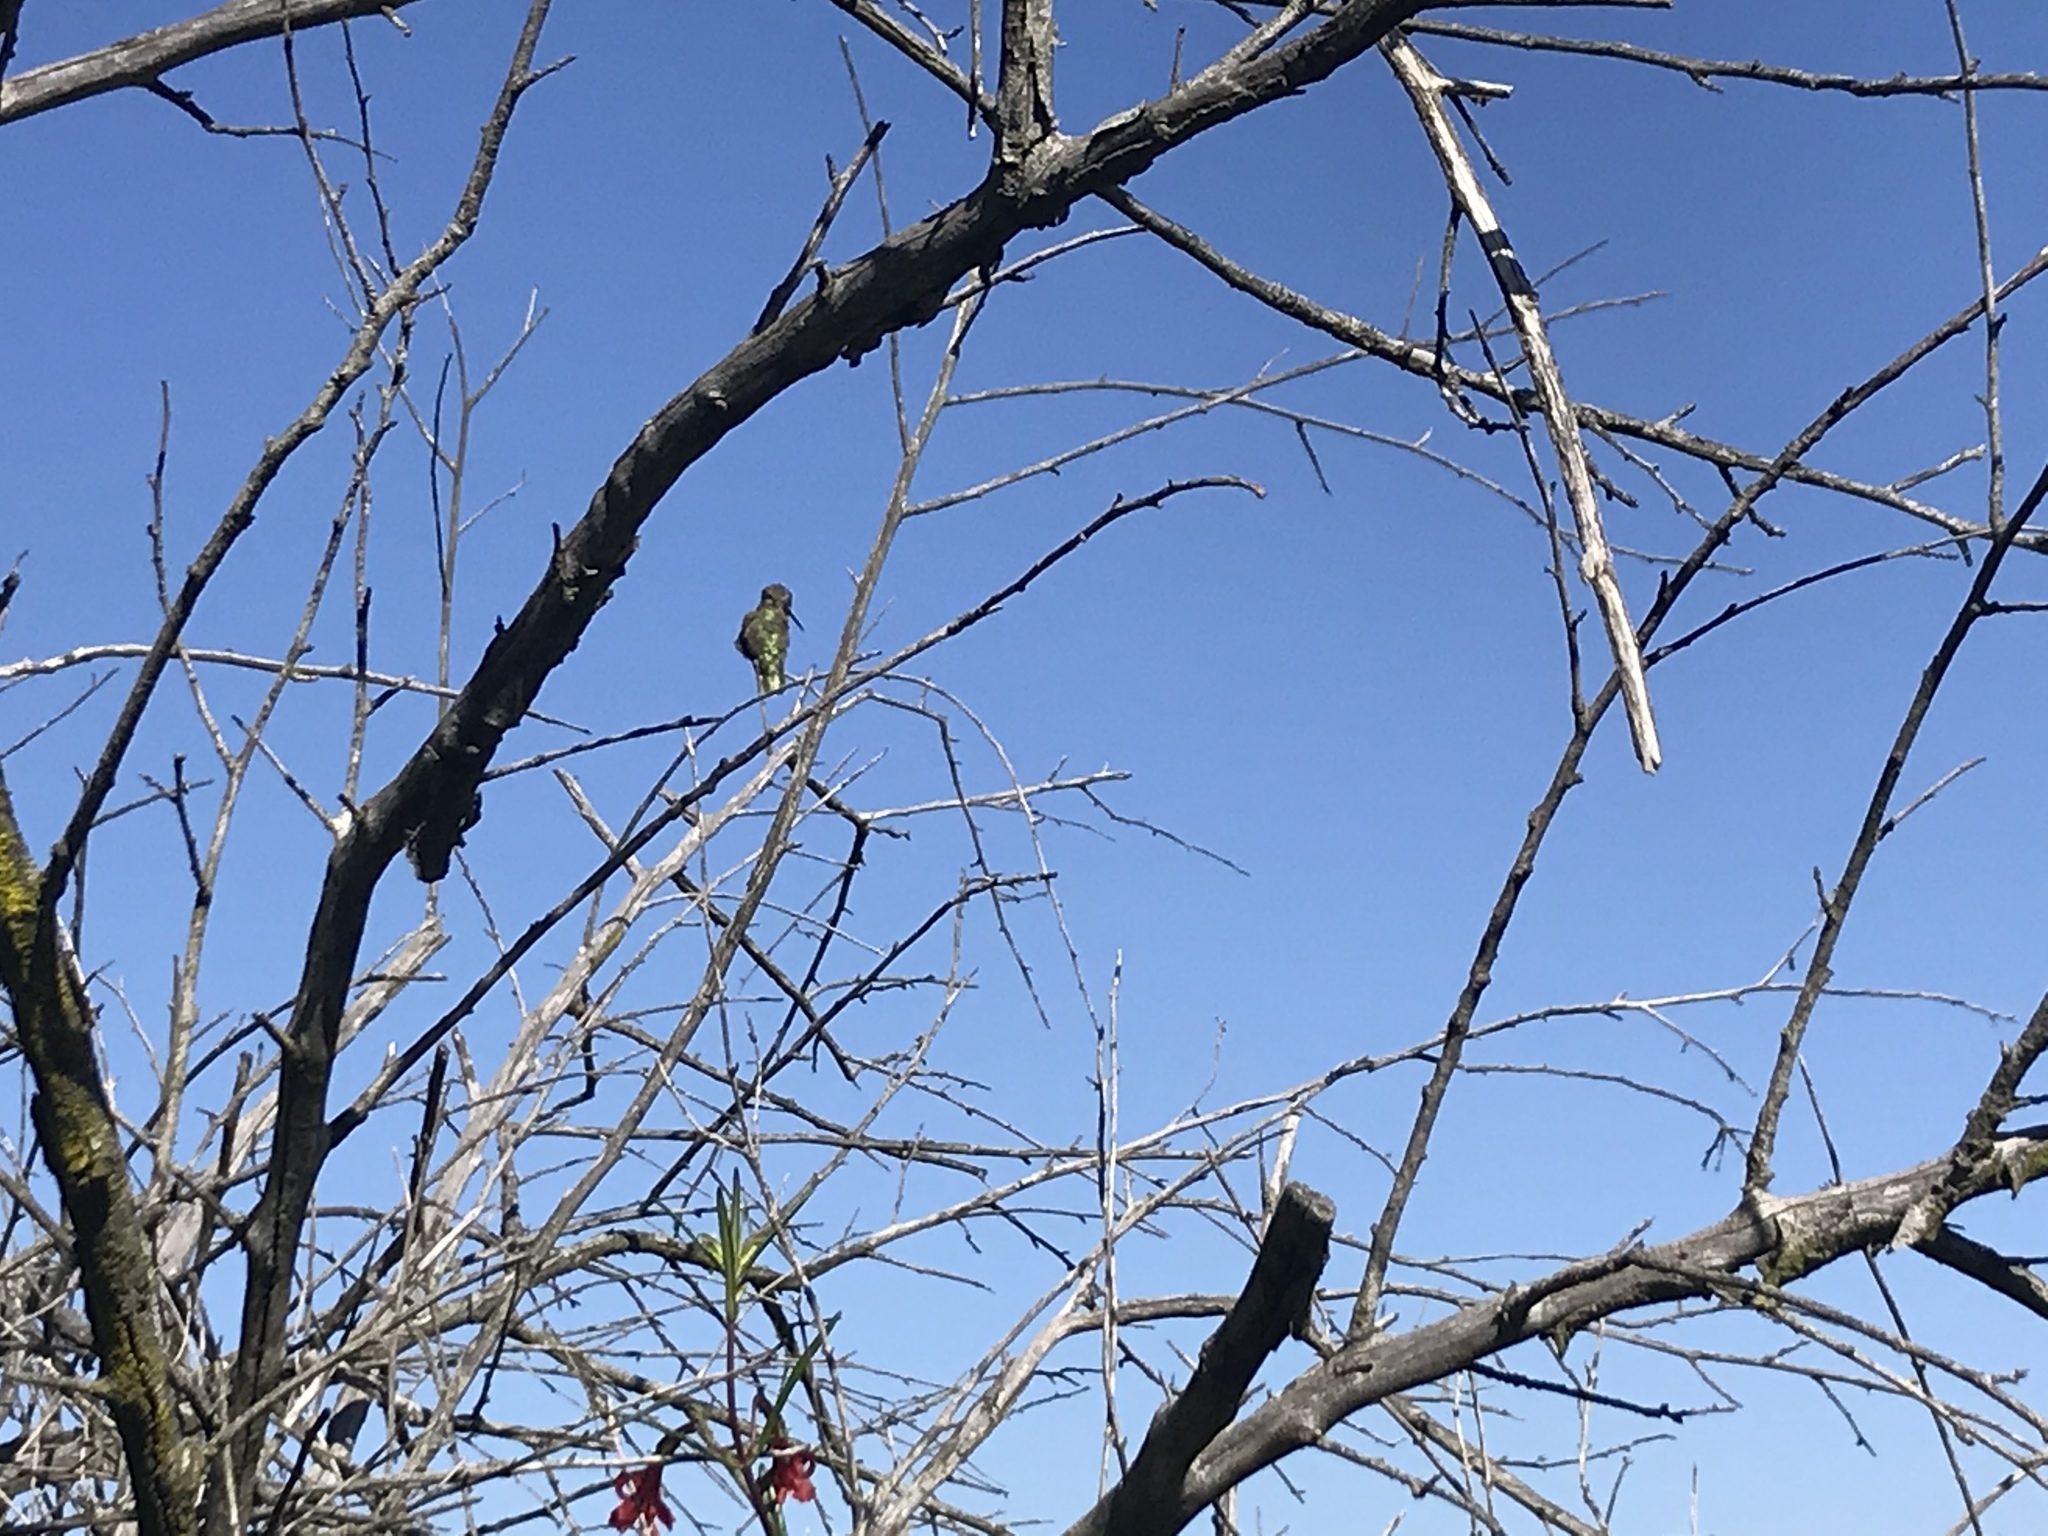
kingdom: Animalia
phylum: Chordata
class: Aves
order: Apodiformes
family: Trochilidae
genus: Calypte
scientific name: Calypte anna
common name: Anna's hummingbird
